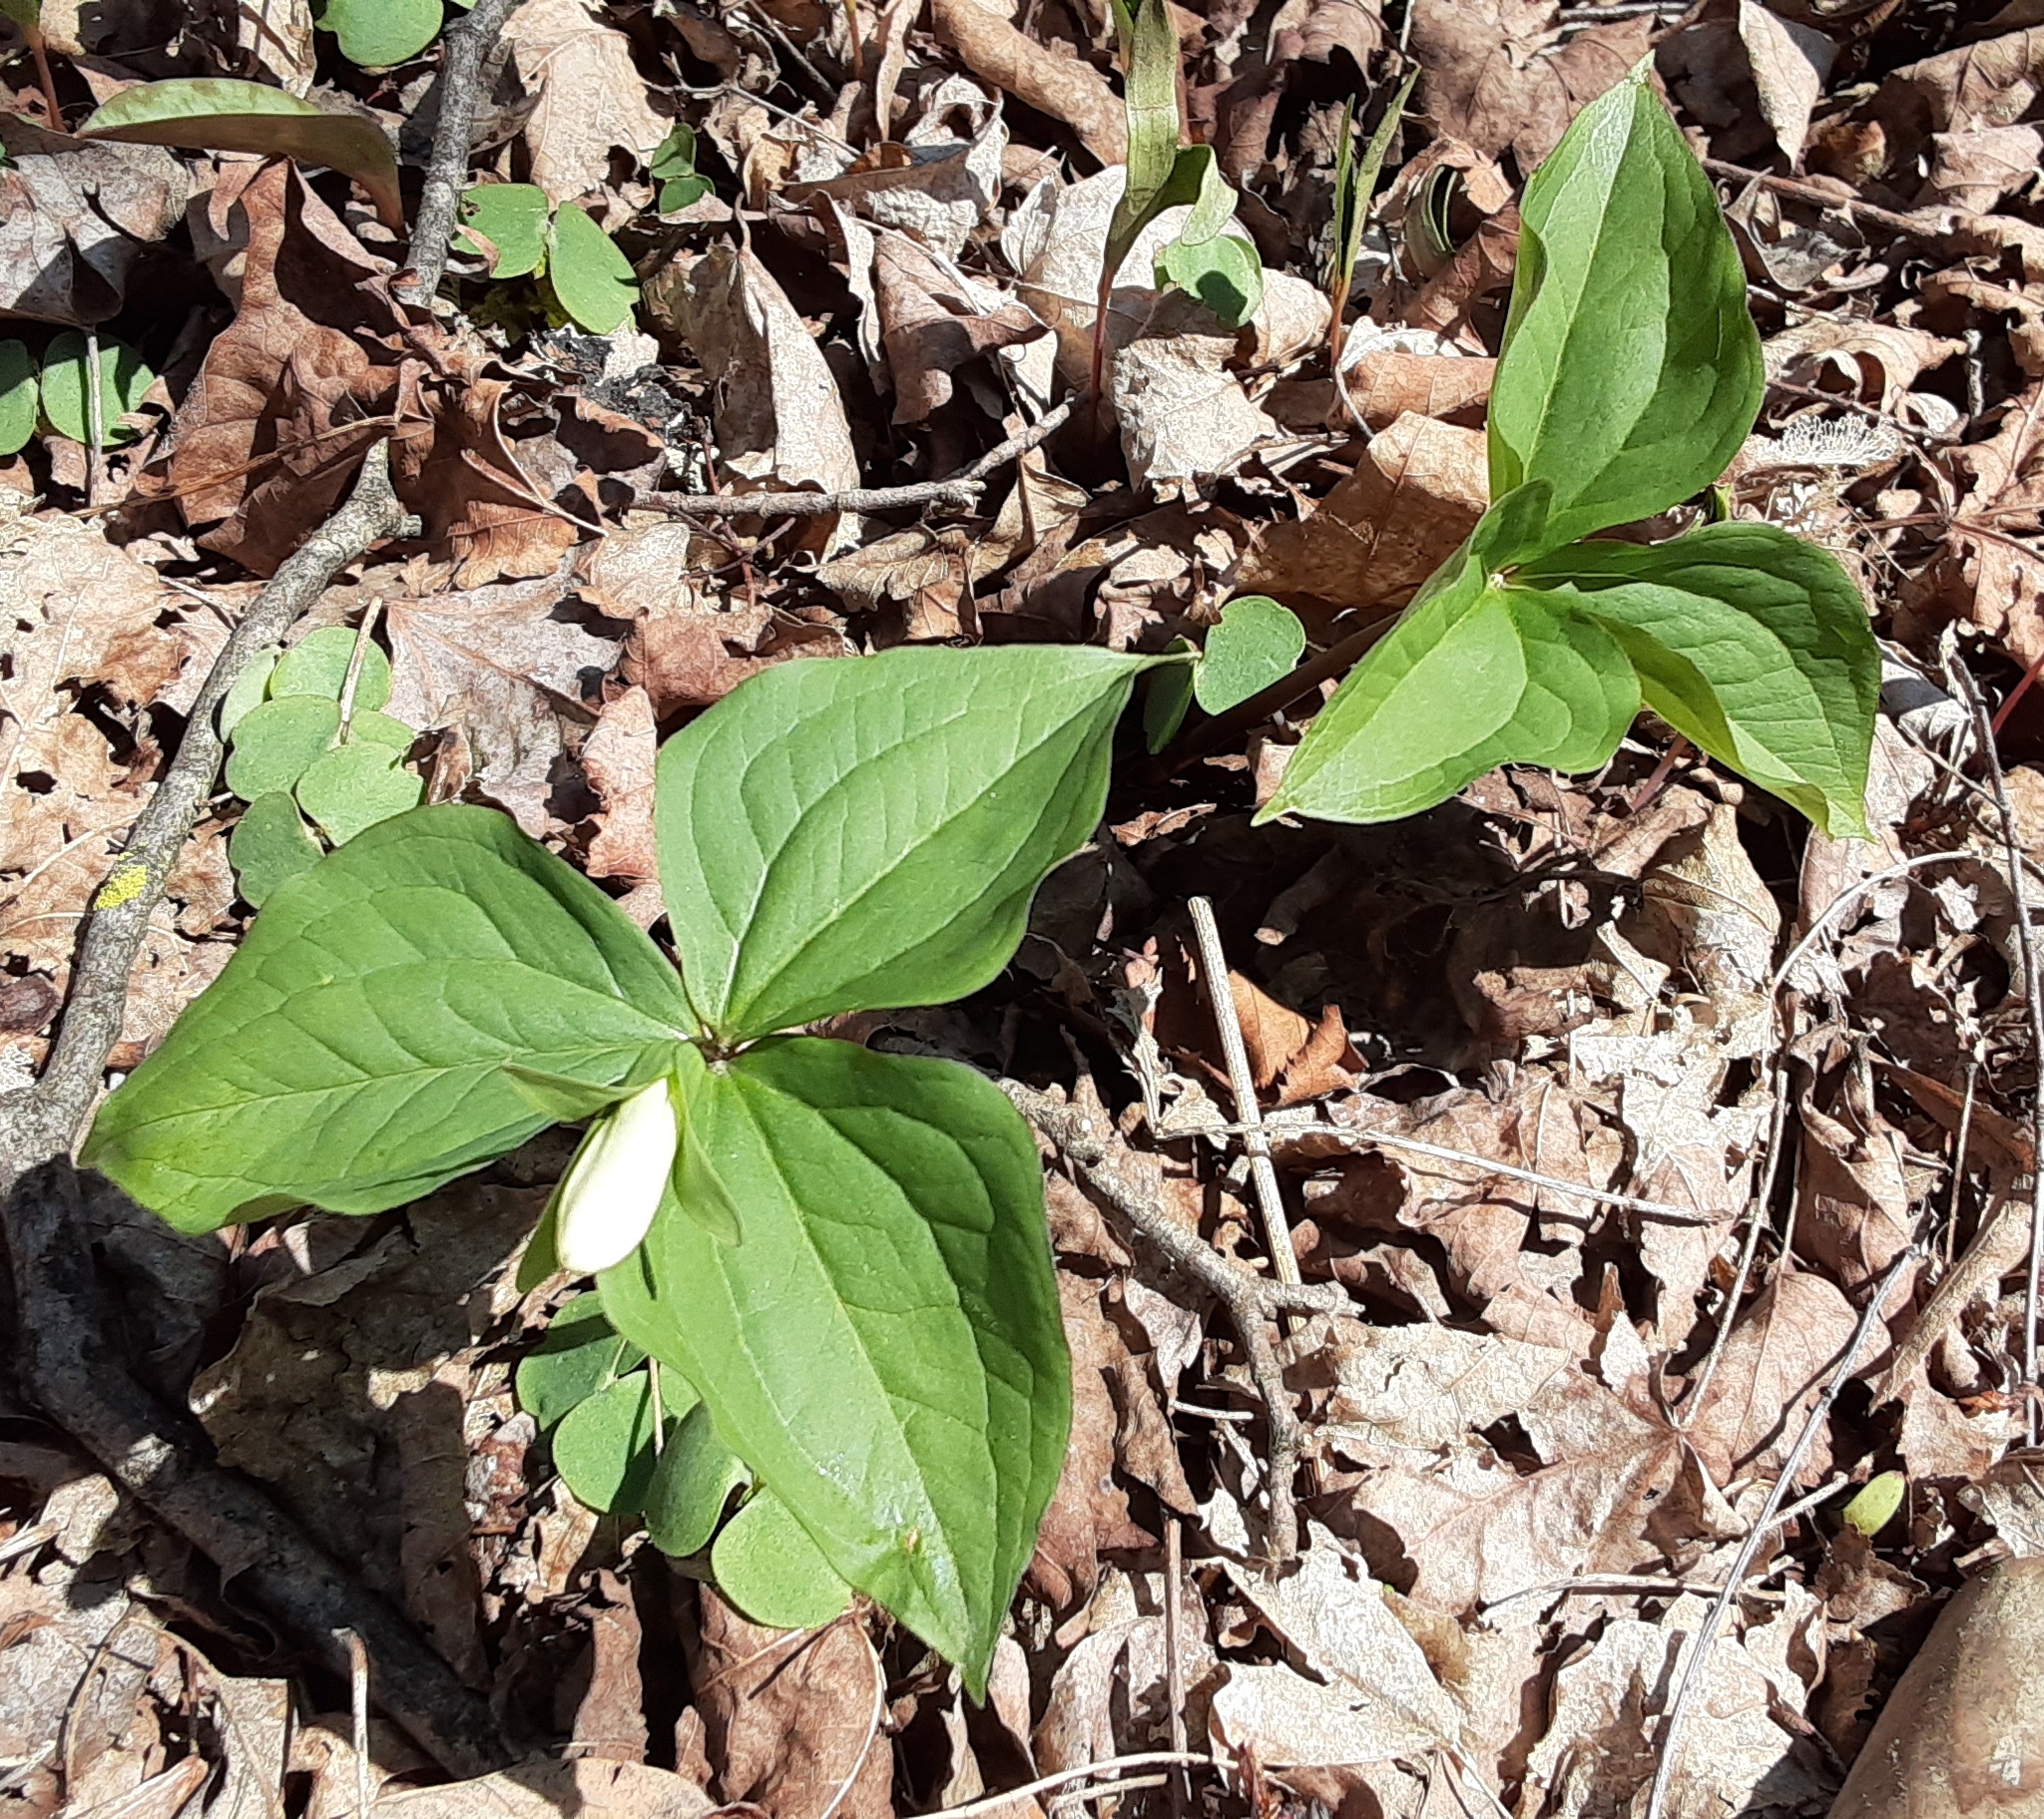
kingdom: Plantae
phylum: Tracheophyta
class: Liliopsida
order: Liliales
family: Melanthiaceae
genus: Trillium
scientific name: Trillium grandiflorum
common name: Great white trillium
